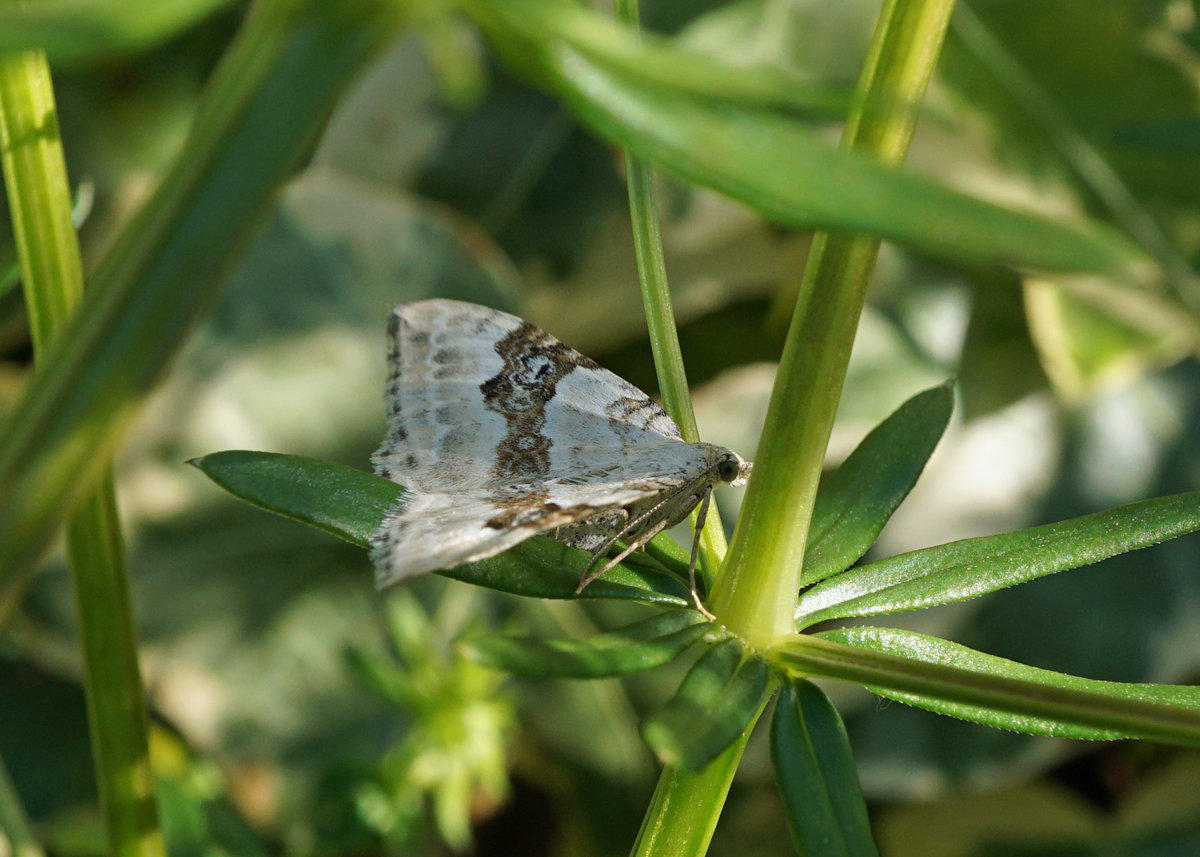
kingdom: Animalia
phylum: Arthropoda
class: Insecta
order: Lepidoptera
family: Geometridae
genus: Xanthorhoe
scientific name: Xanthorhoe montanata
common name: Silver-ground carpet
